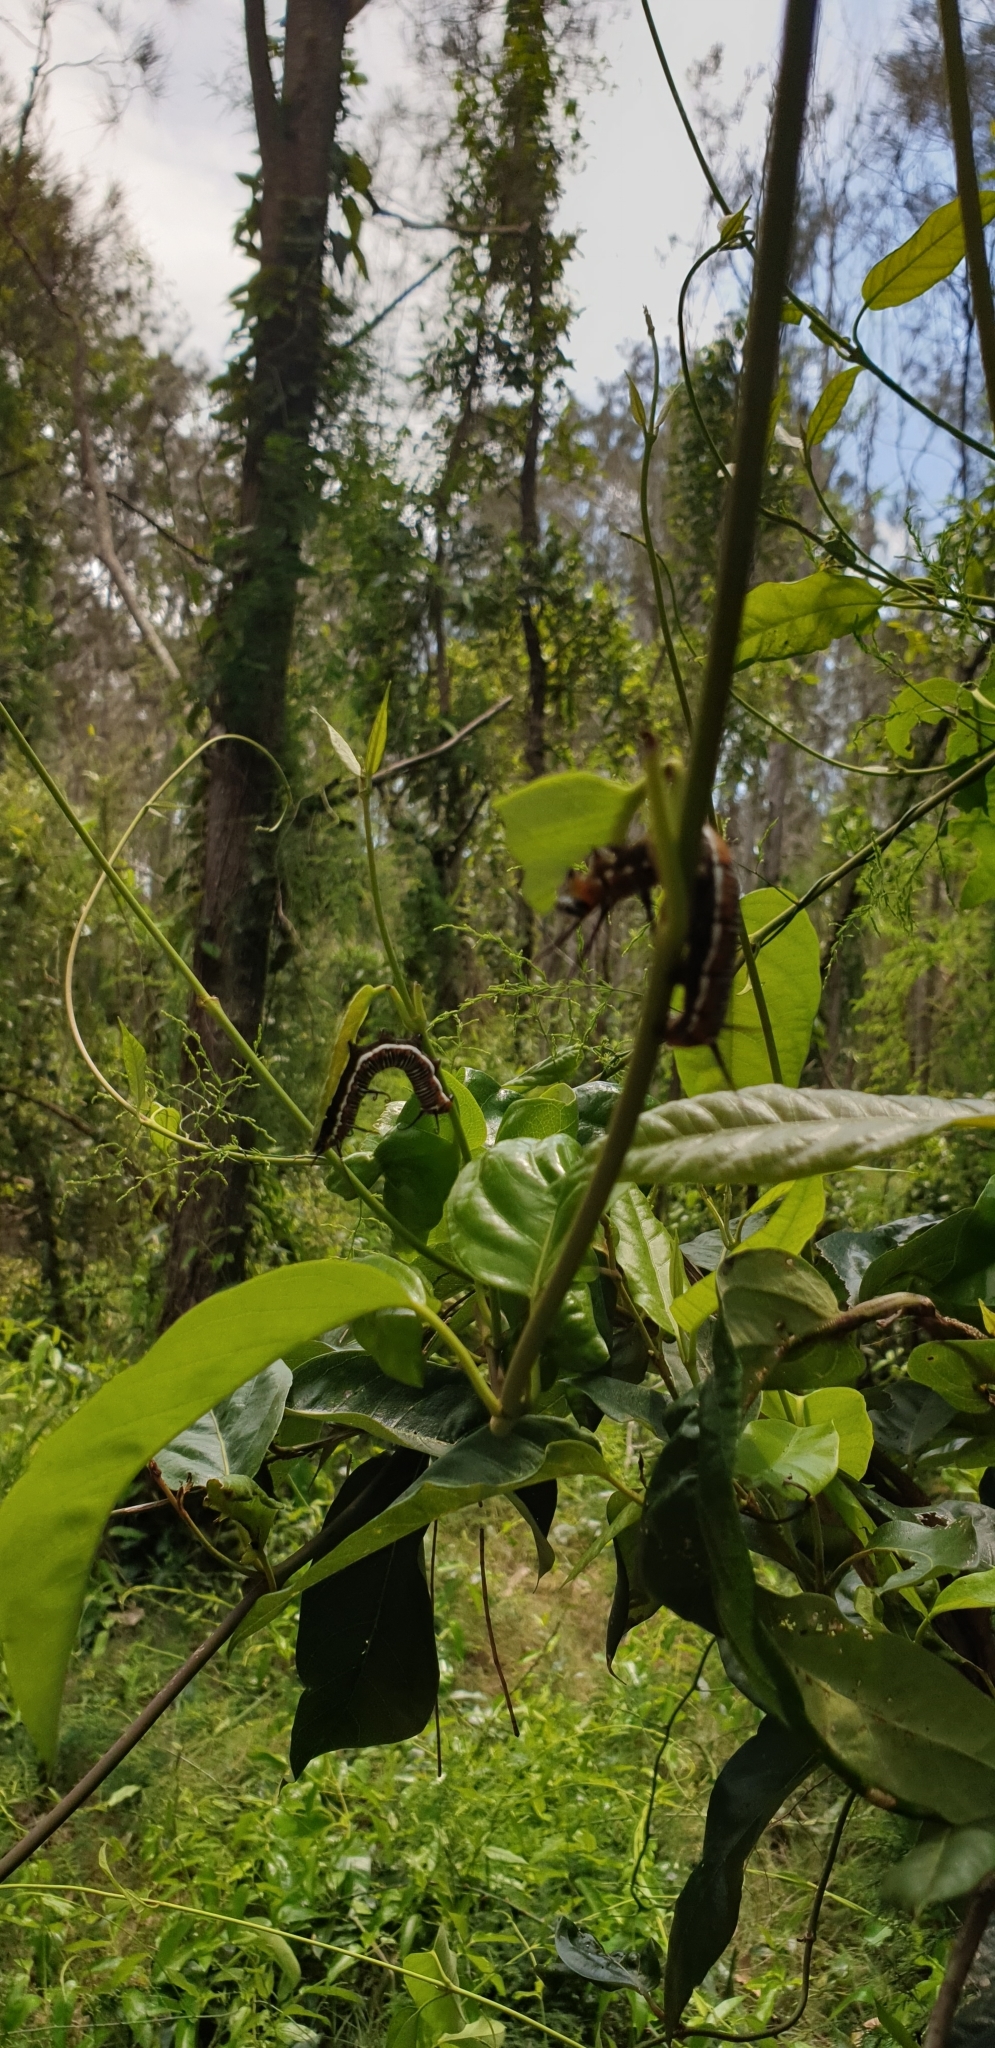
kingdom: Animalia
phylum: Arthropoda
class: Insecta
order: Lepidoptera
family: Nymphalidae
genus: Euploea
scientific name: Euploea core
